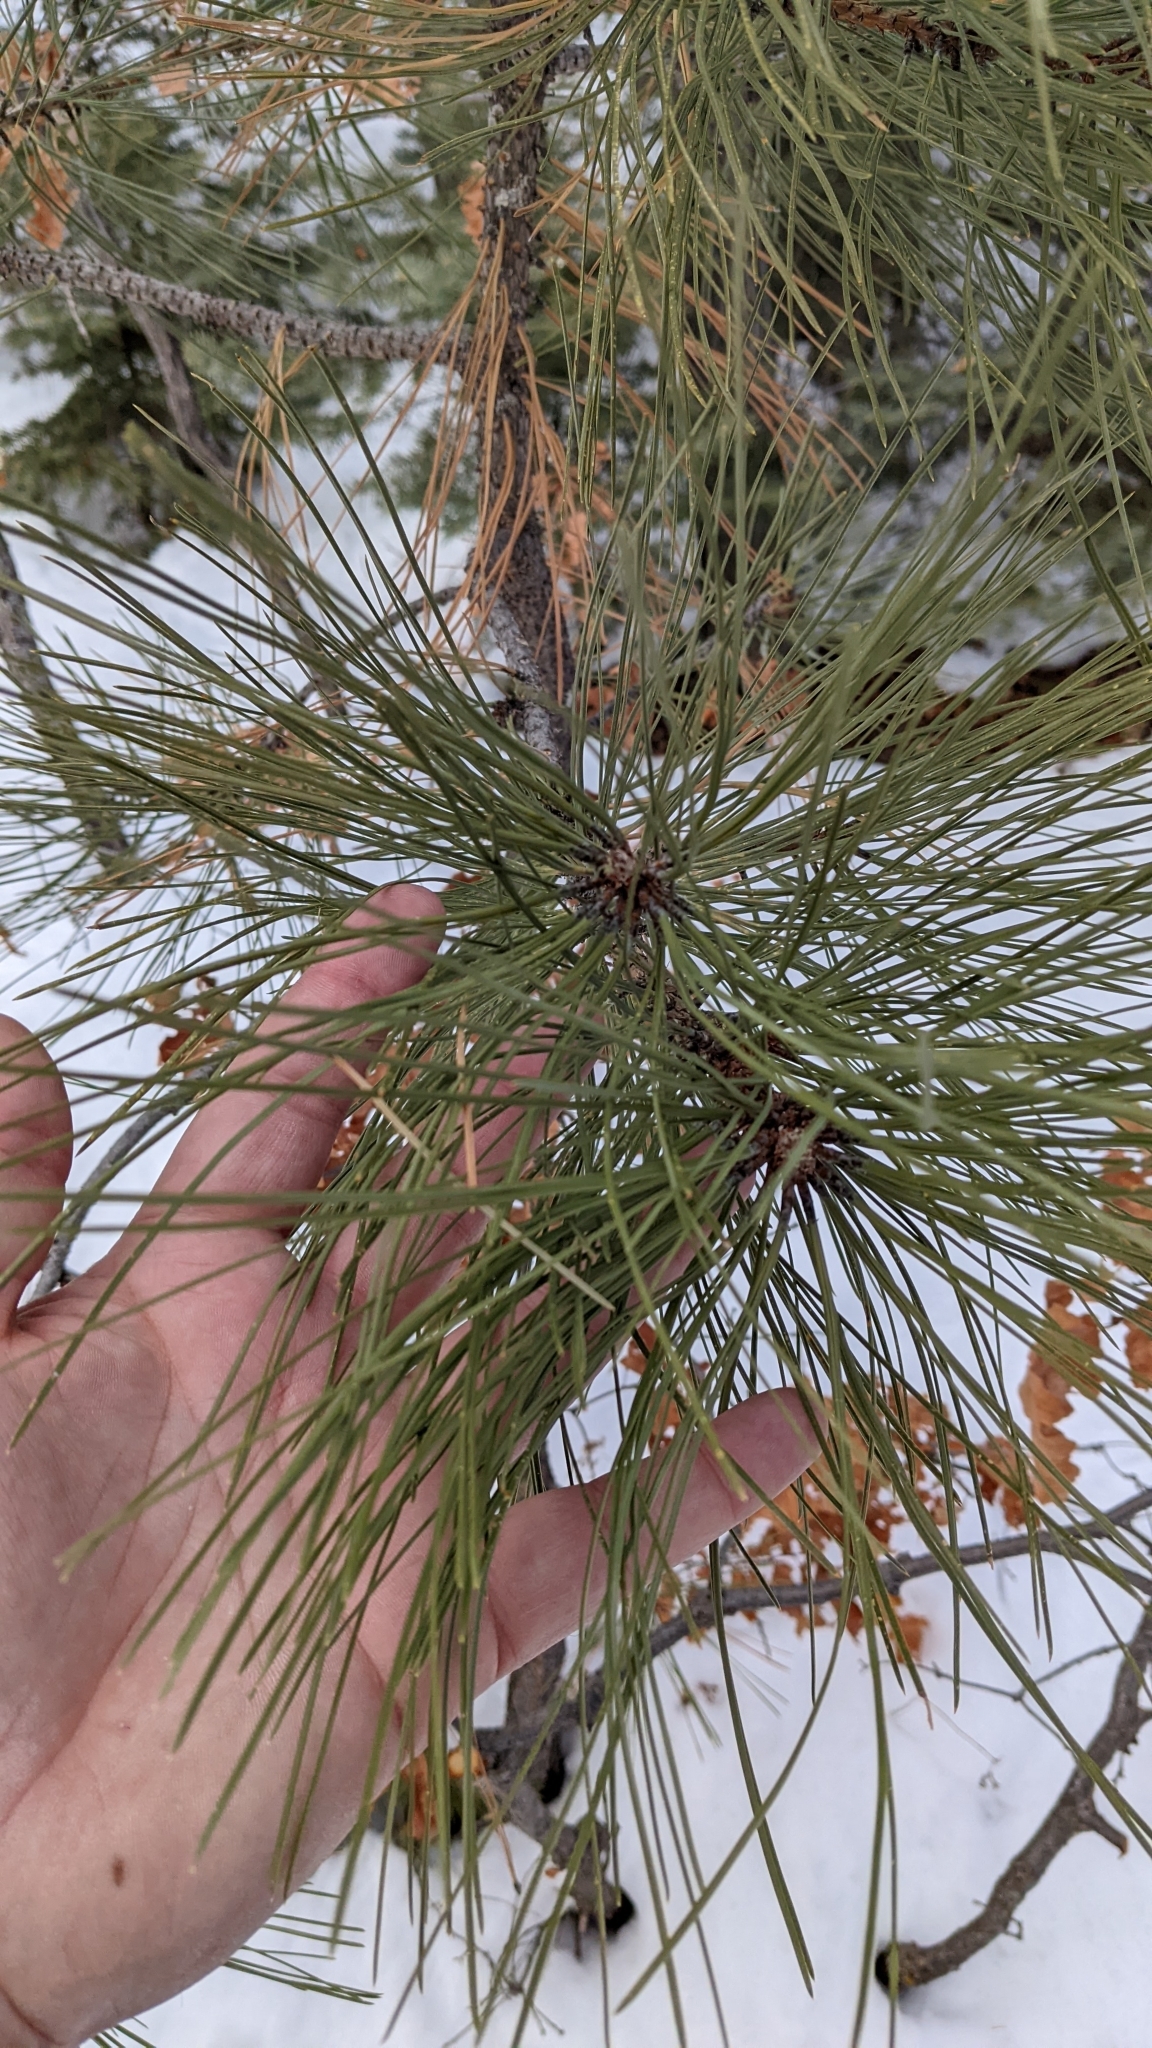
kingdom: Plantae
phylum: Tracheophyta
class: Pinopsida
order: Pinales
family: Pinaceae
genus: Pinus
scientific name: Pinus ponderosa
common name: Western yellow-pine
